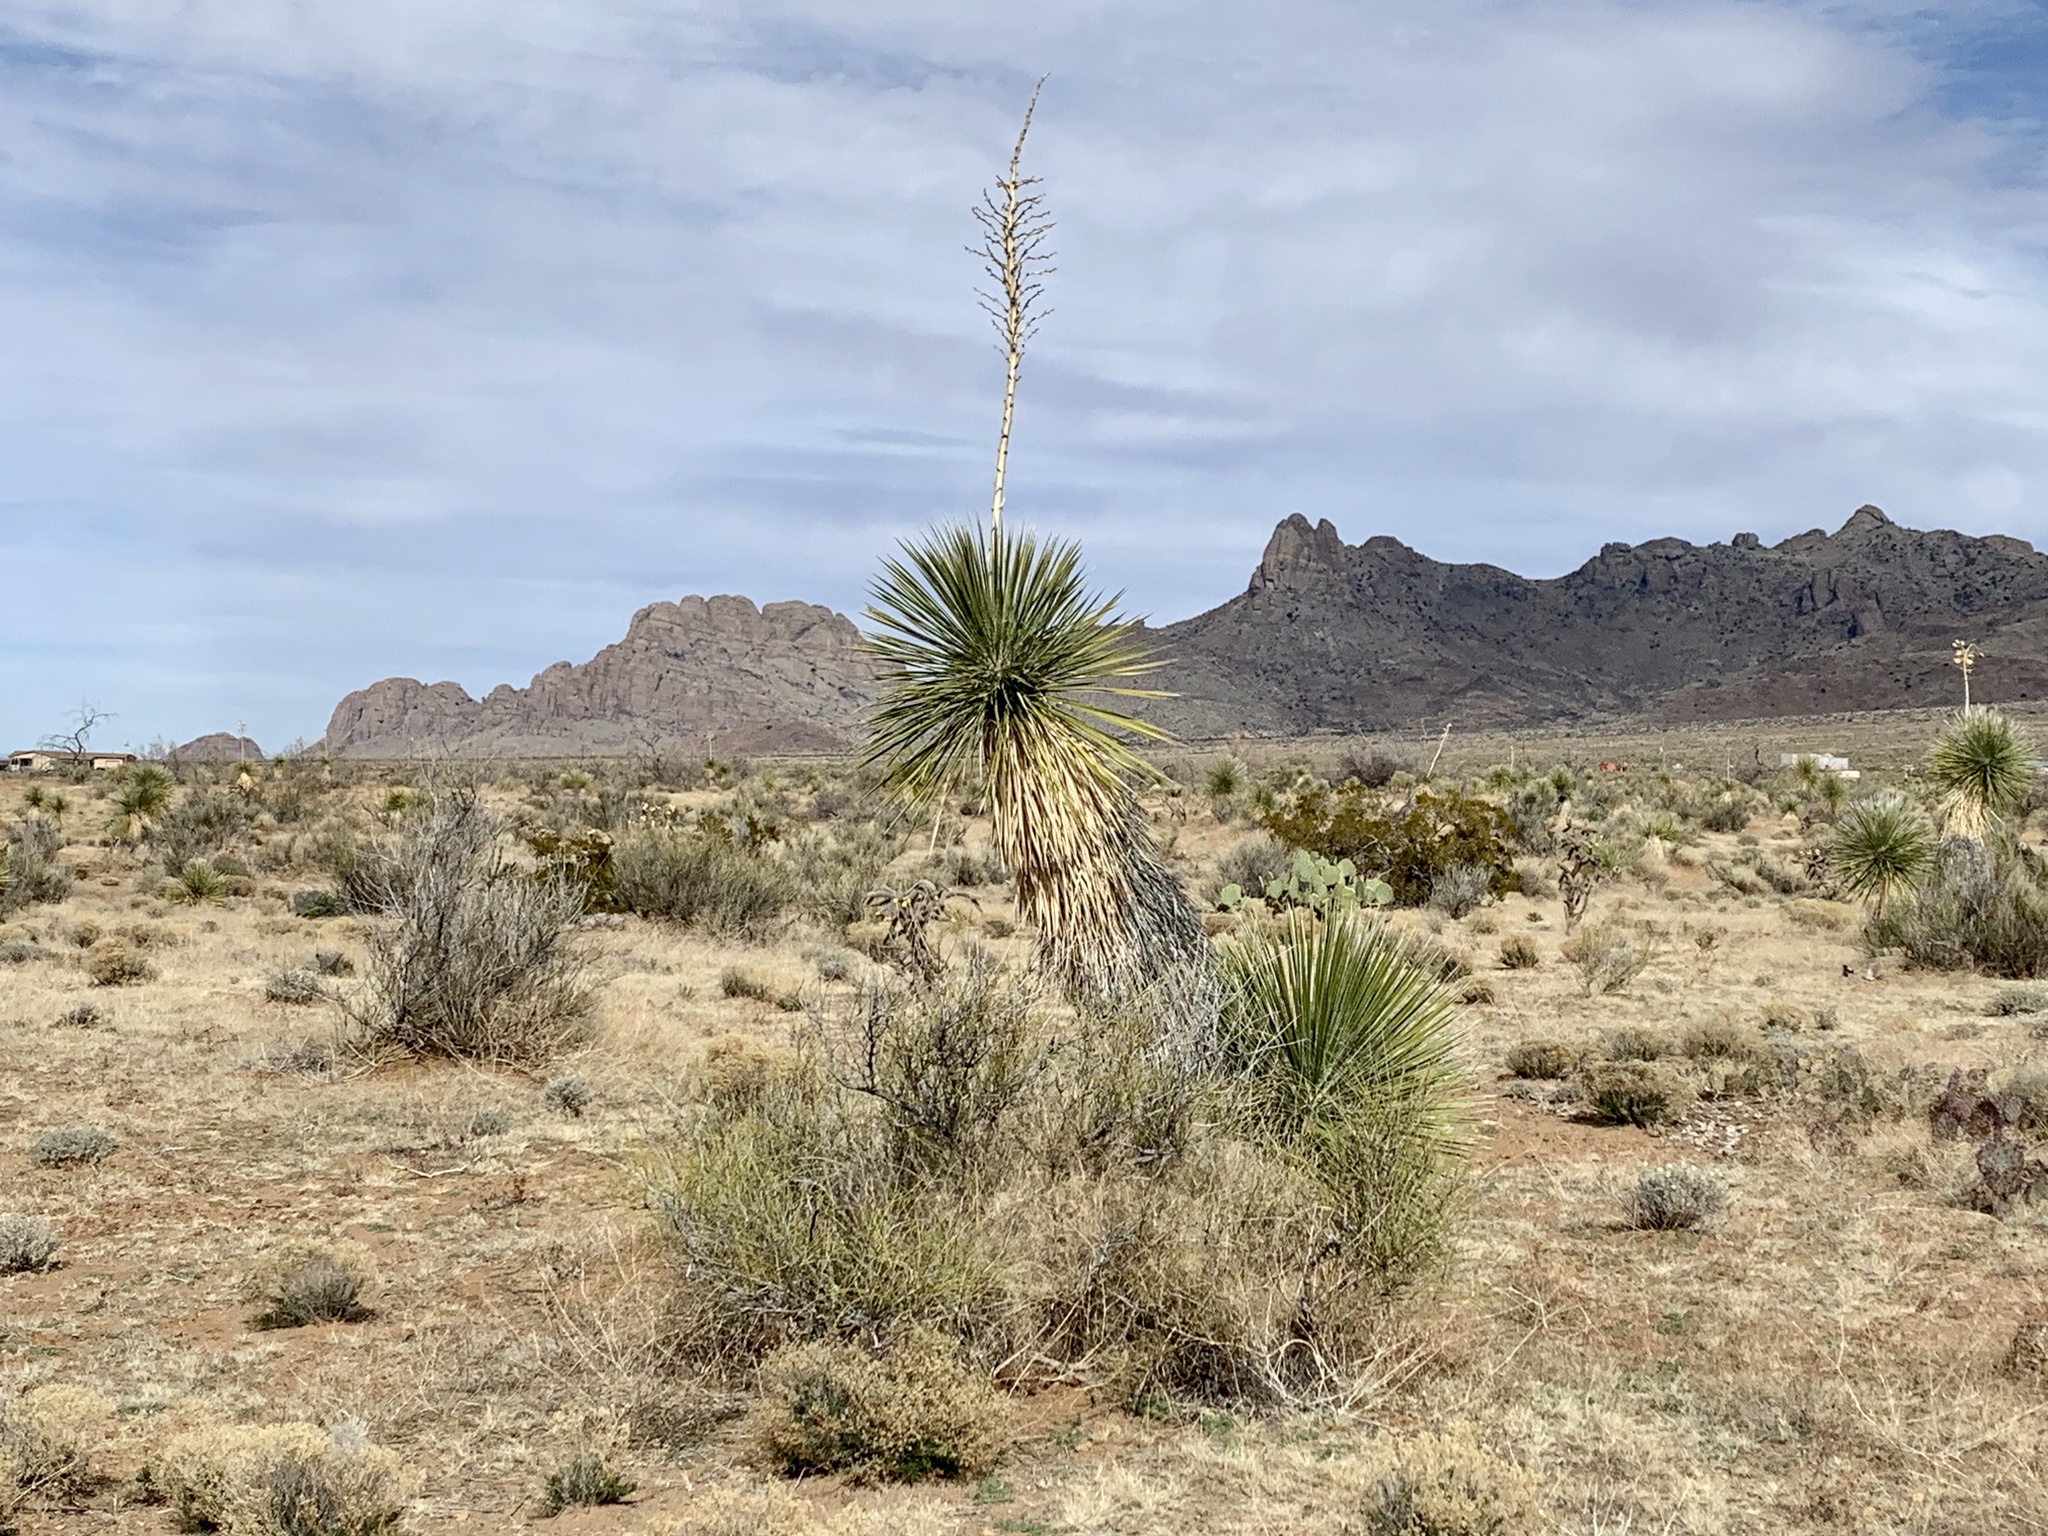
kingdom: Plantae
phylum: Tracheophyta
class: Liliopsida
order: Asparagales
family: Asparagaceae
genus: Yucca
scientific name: Yucca elata
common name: Palmella
